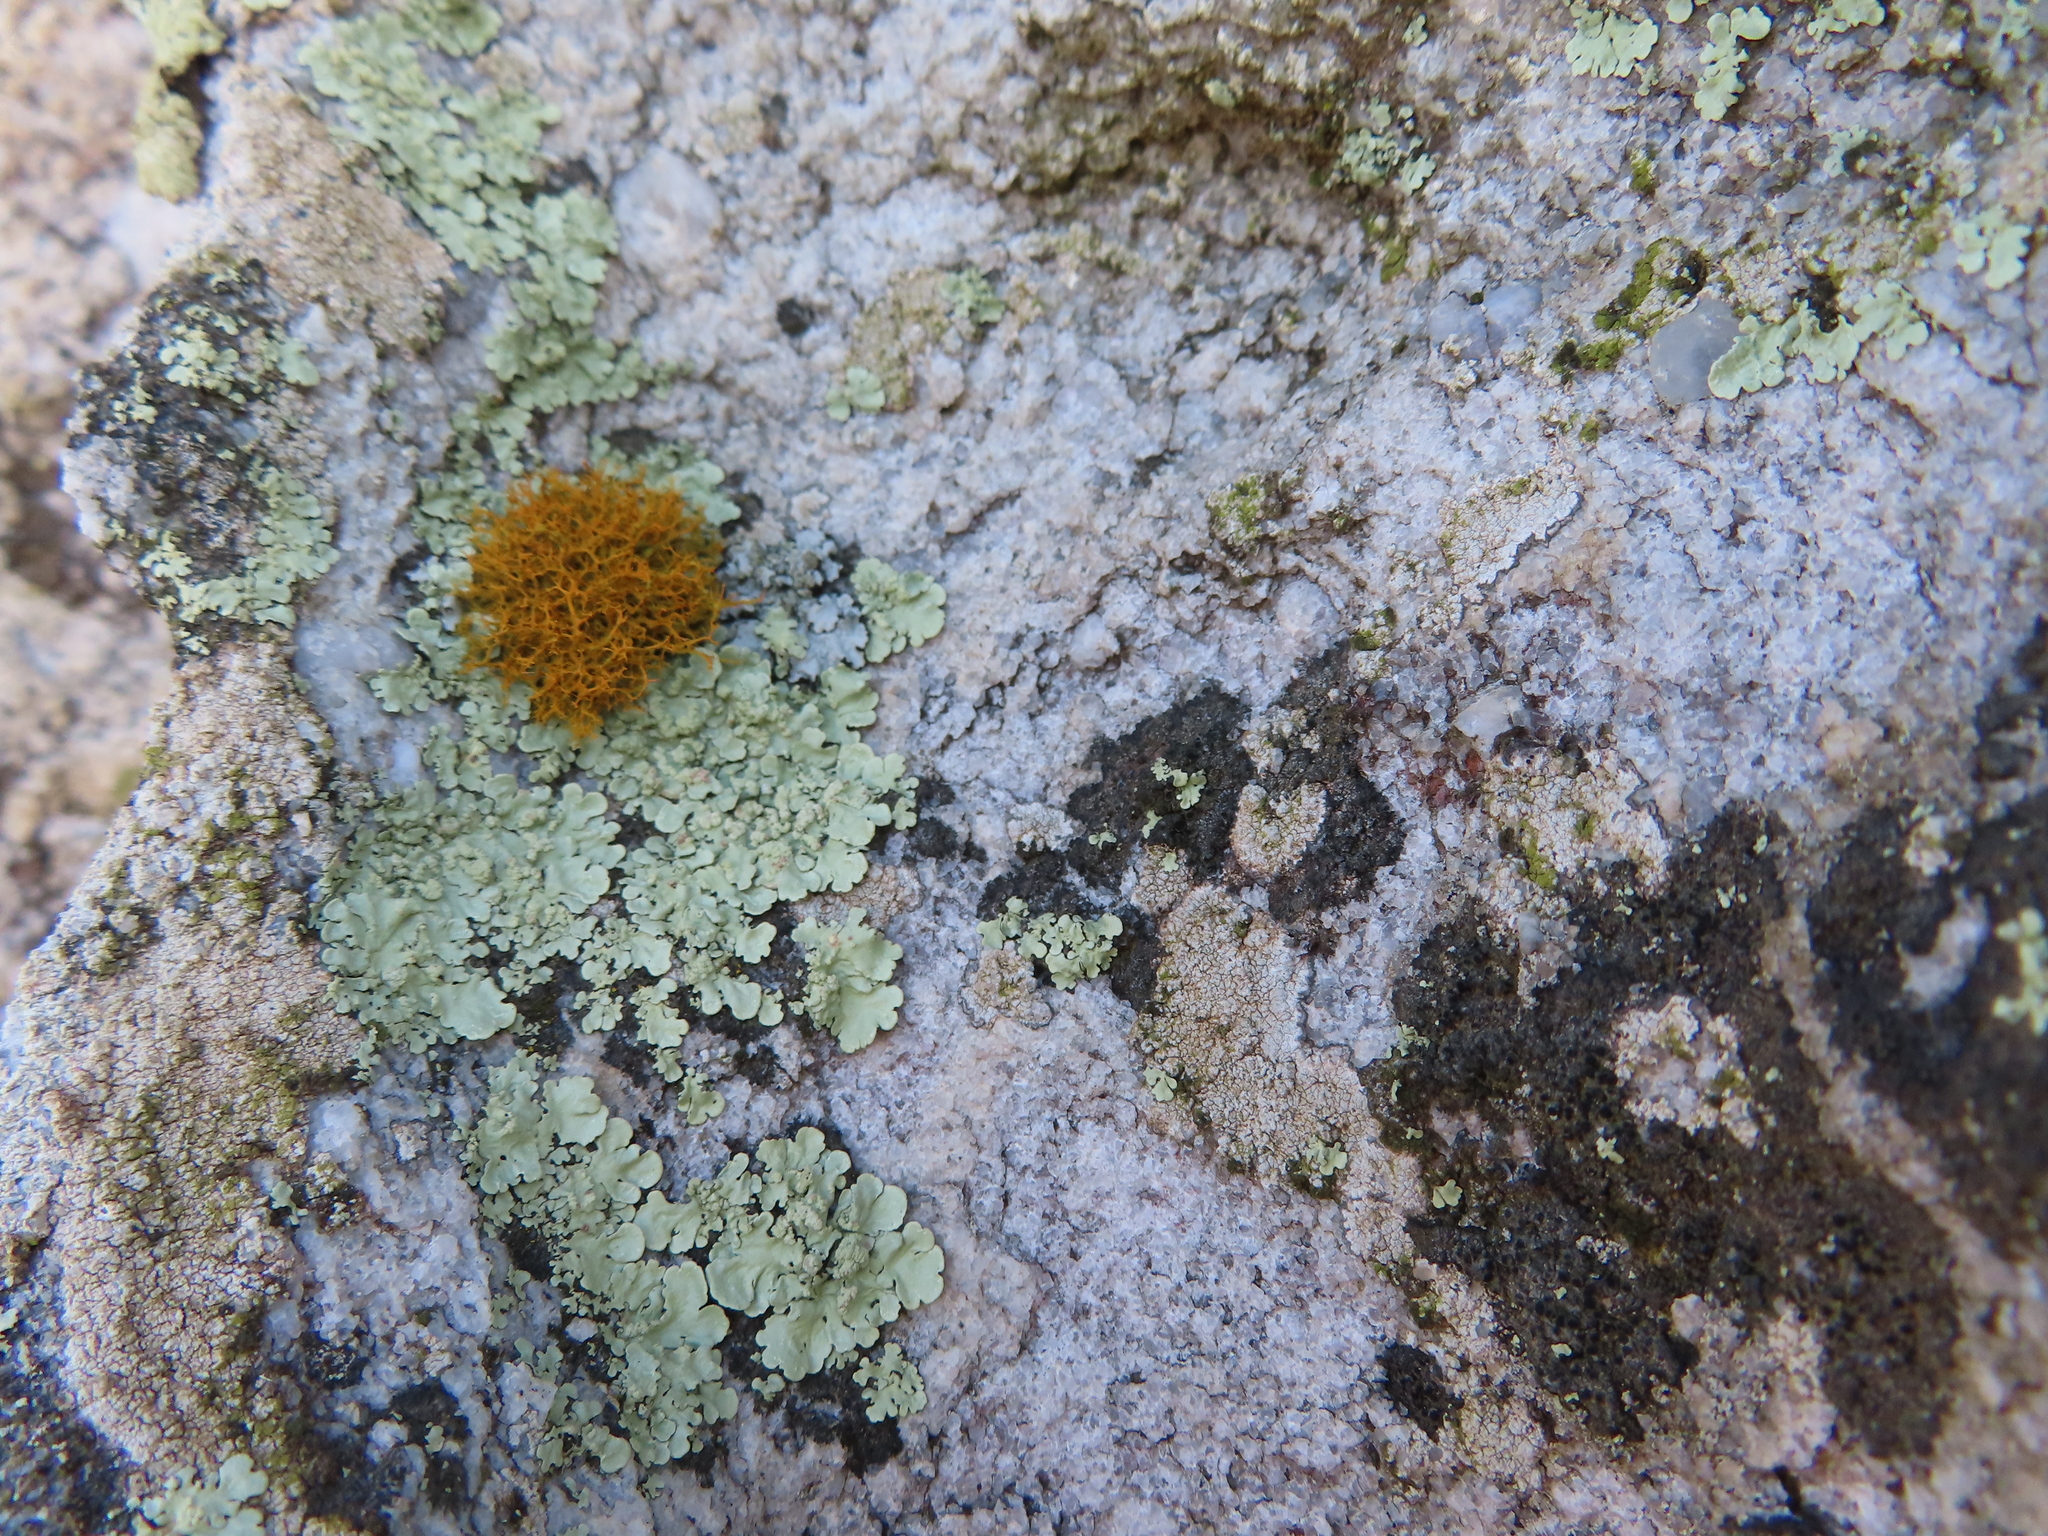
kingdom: Fungi
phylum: Ascomycota
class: Lecanoromycetes
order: Lecanorales
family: Parmeliaceae
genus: Flavoparmelia
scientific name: Flavoparmelia soredians
